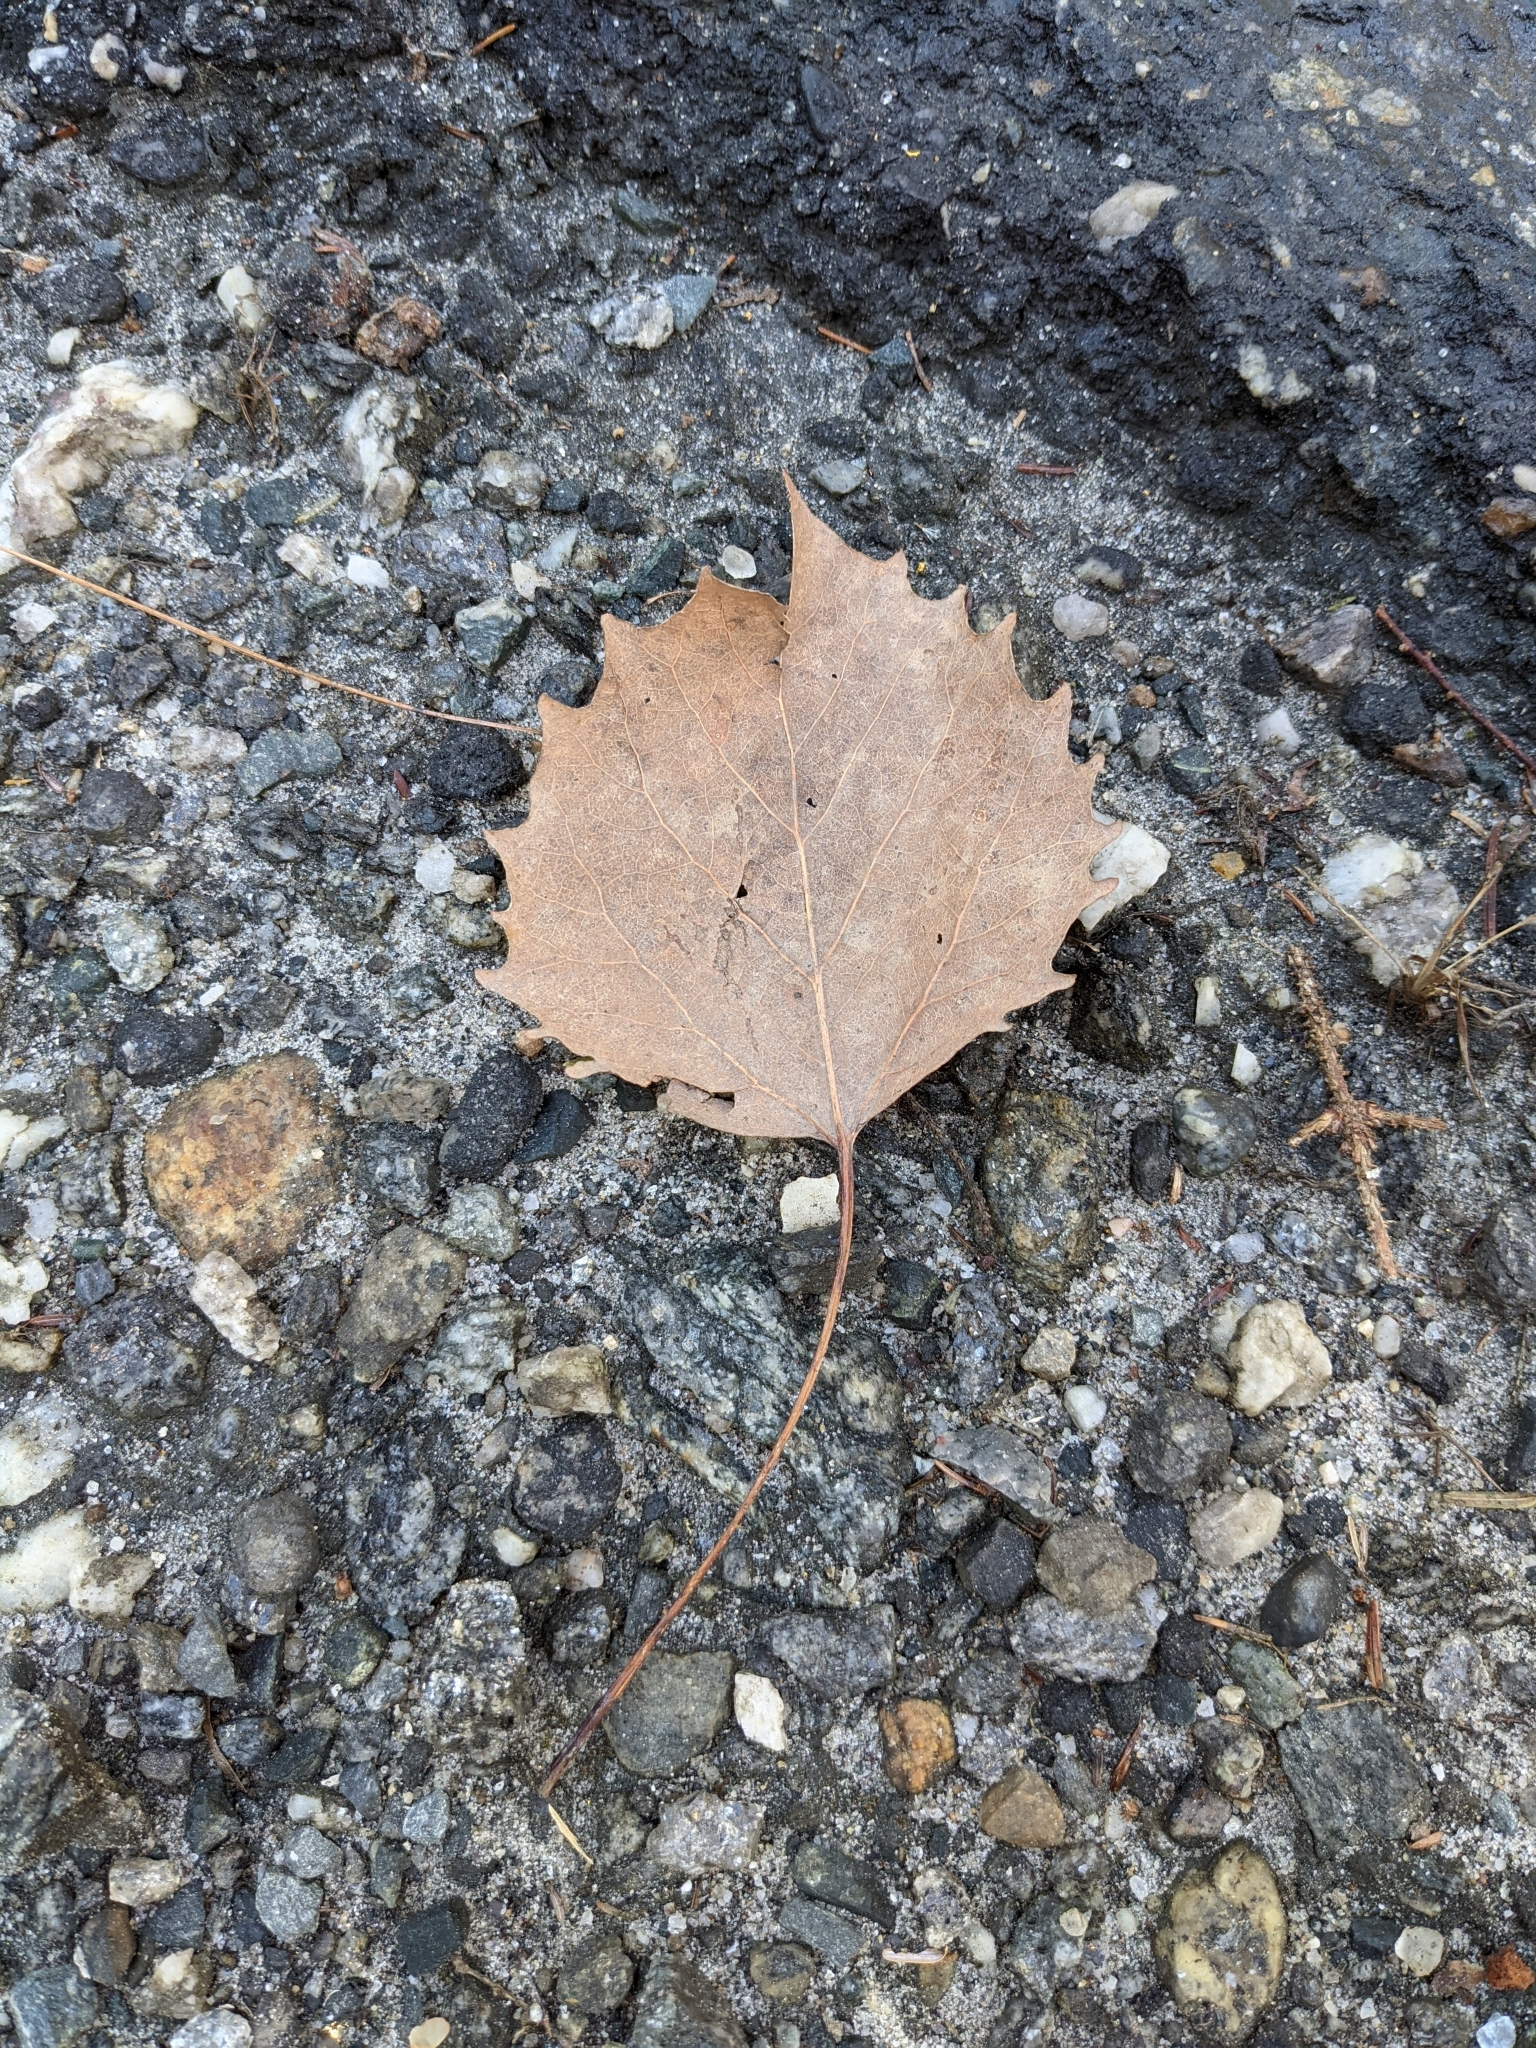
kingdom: Plantae
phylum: Tracheophyta
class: Magnoliopsida
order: Malpighiales
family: Salicaceae
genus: Populus
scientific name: Populus grandidentata
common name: Bigtooth aspen
